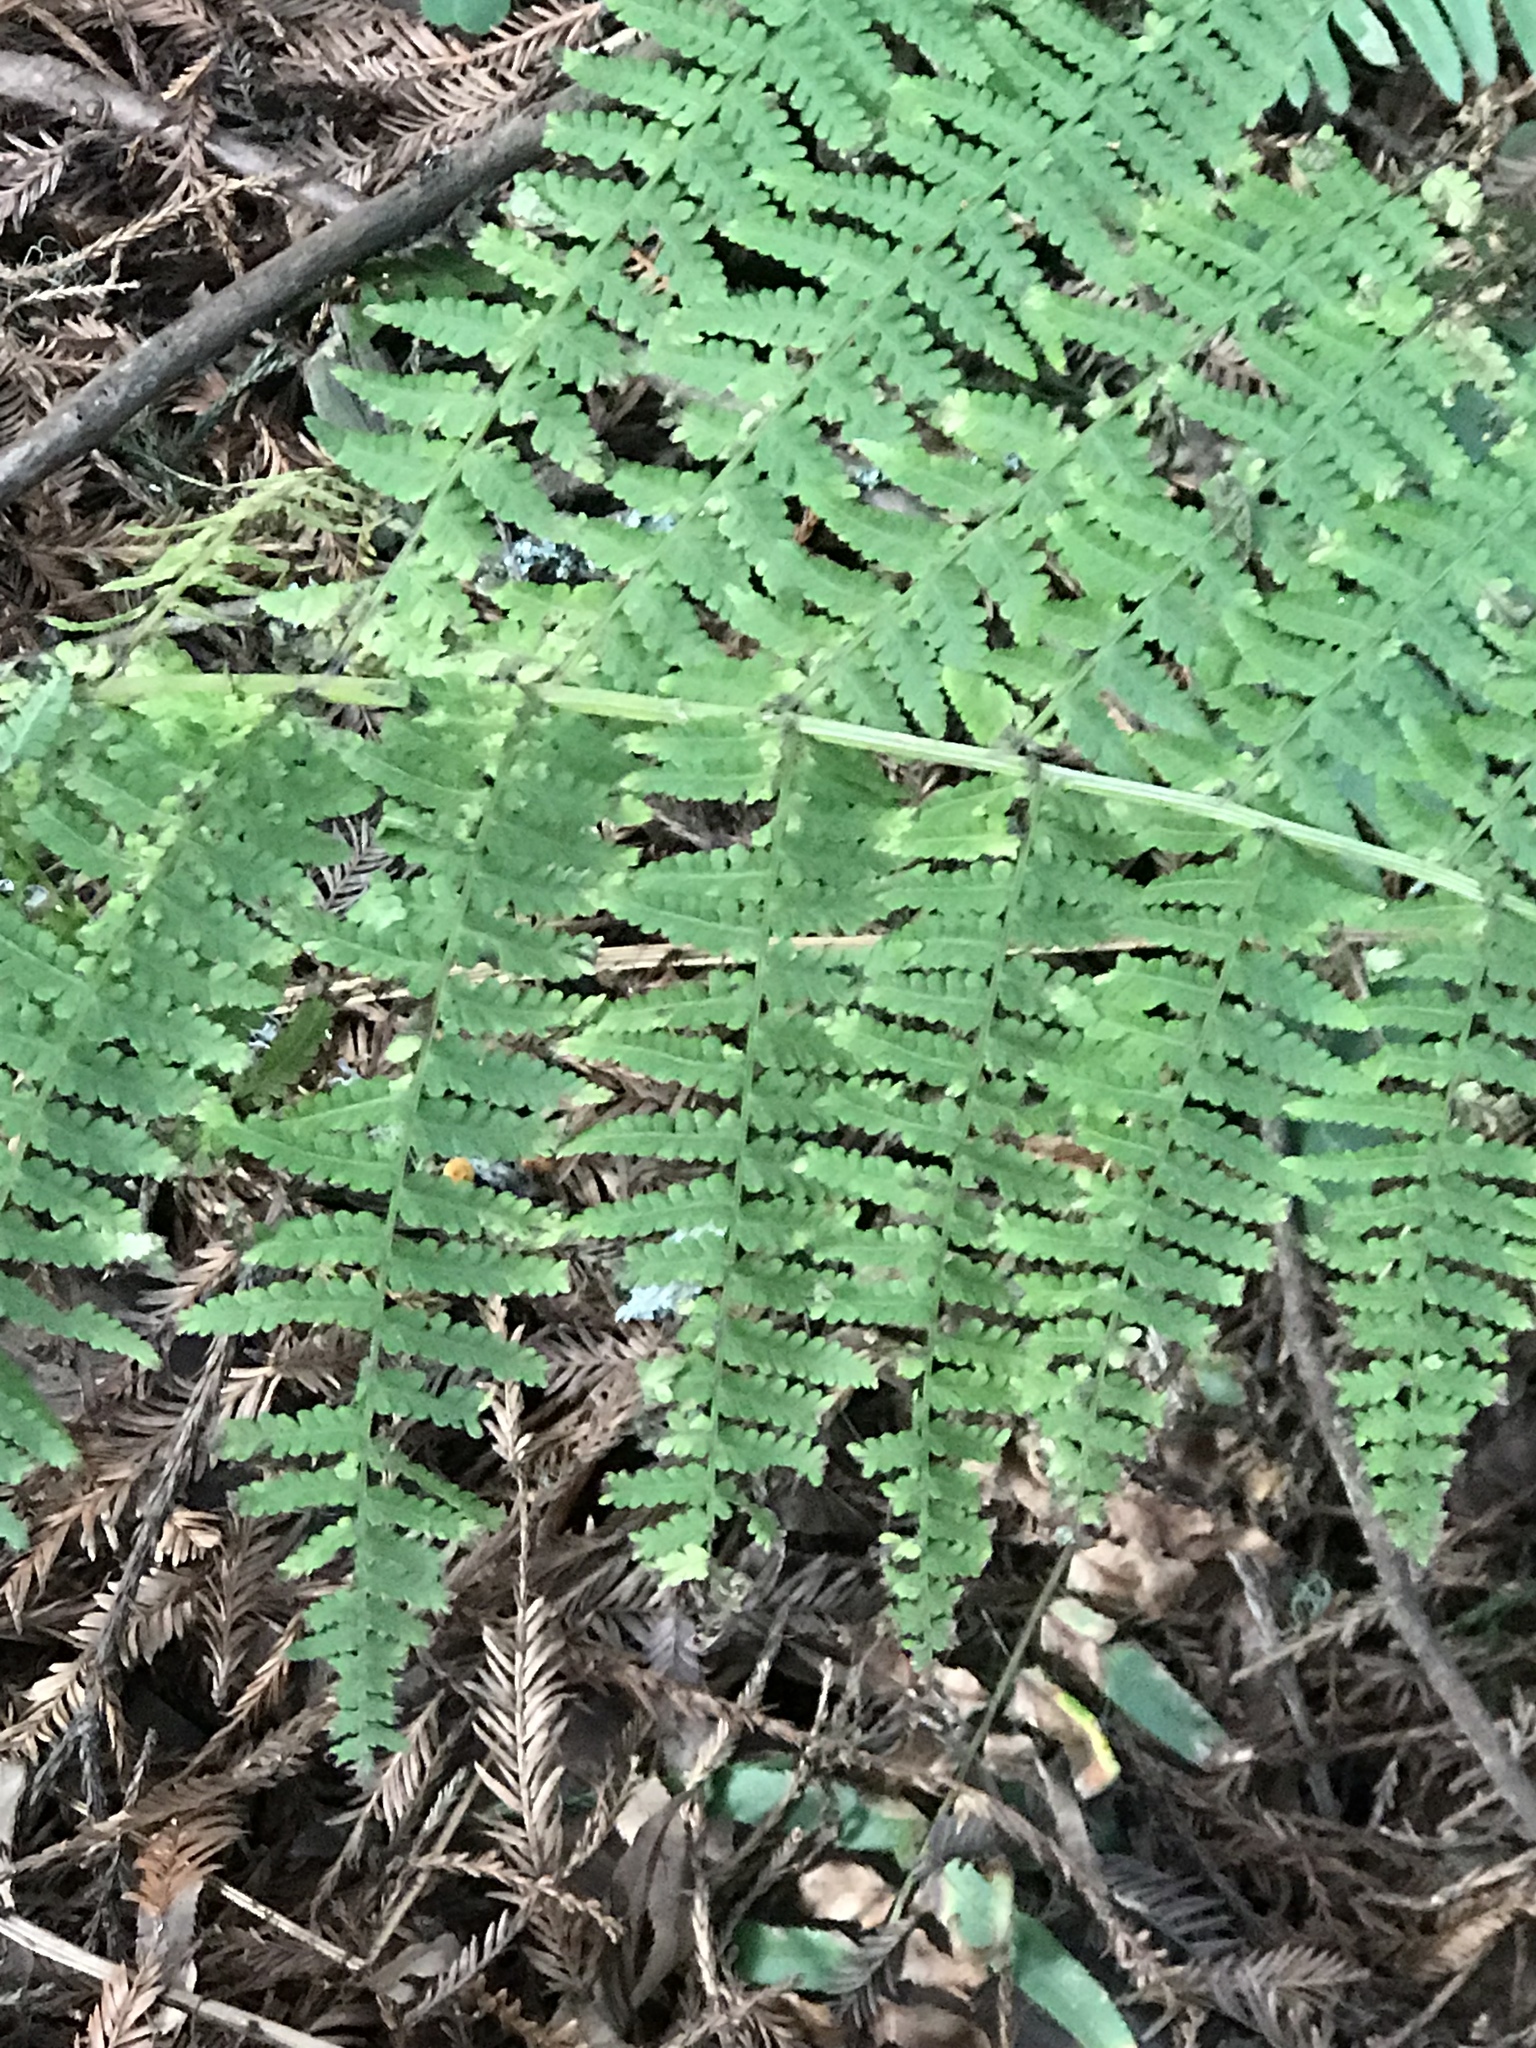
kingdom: Plantae
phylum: Tracheophyta
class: Polypodiopsida
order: Polypodiales
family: Athyriaceae
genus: Athyrium
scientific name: Athyrium filix-femina
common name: Lady fern
